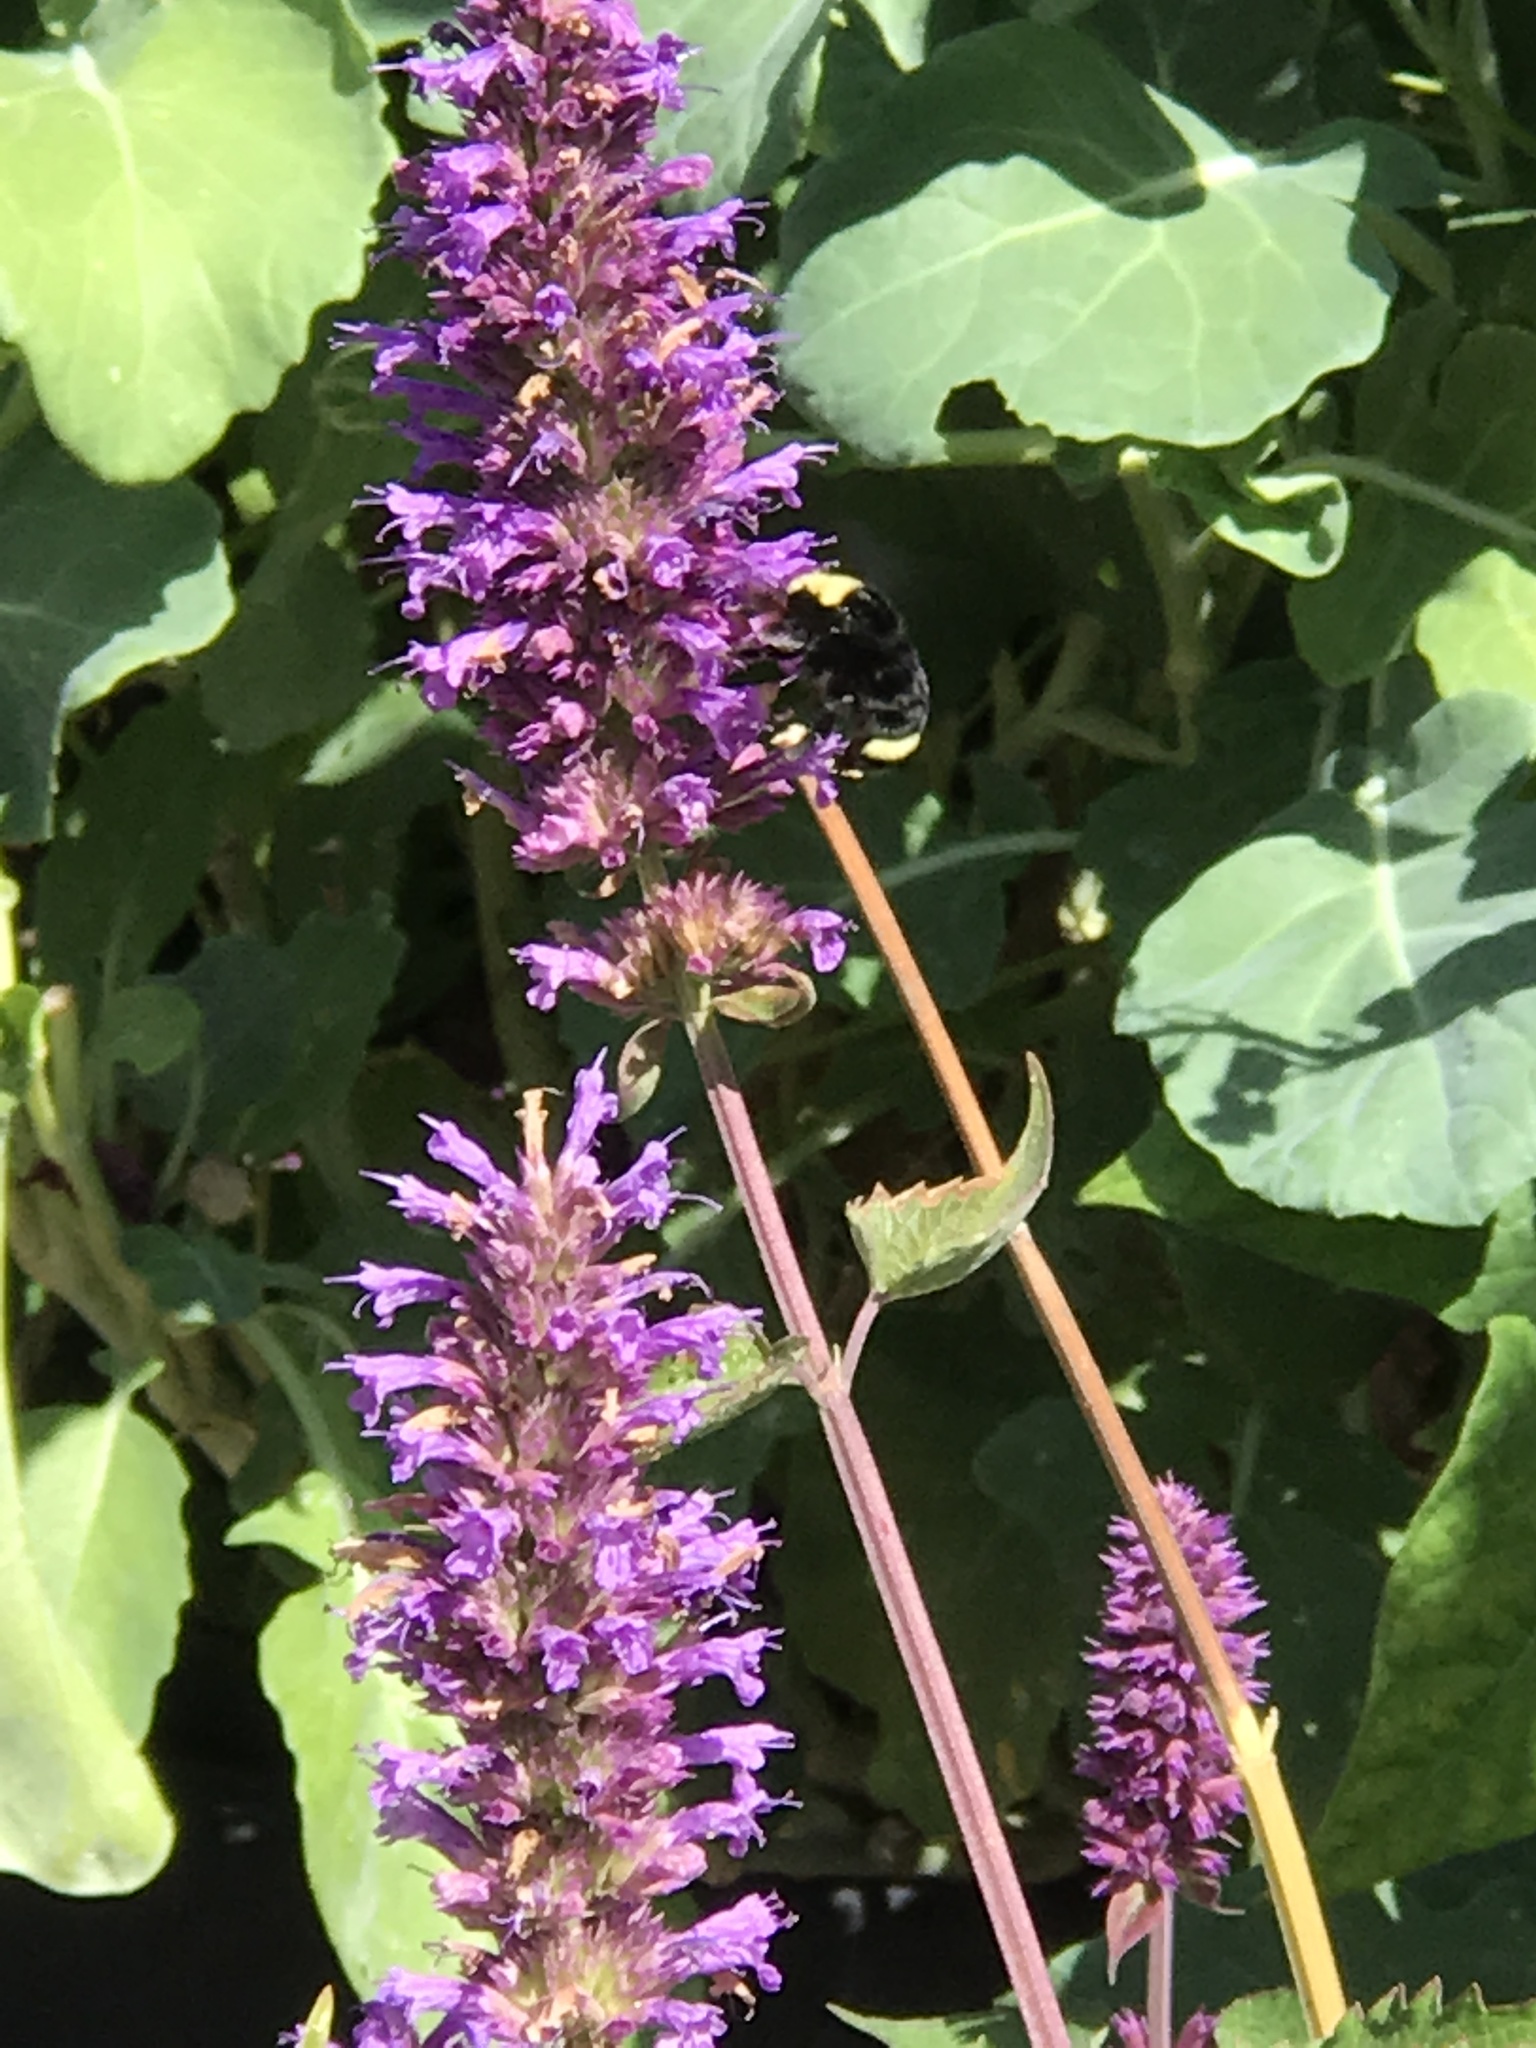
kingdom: Animalia
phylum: Arthropoda
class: Insecta
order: Hymenoptera
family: Apidae
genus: Pyrobombus
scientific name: Pyrobombus
